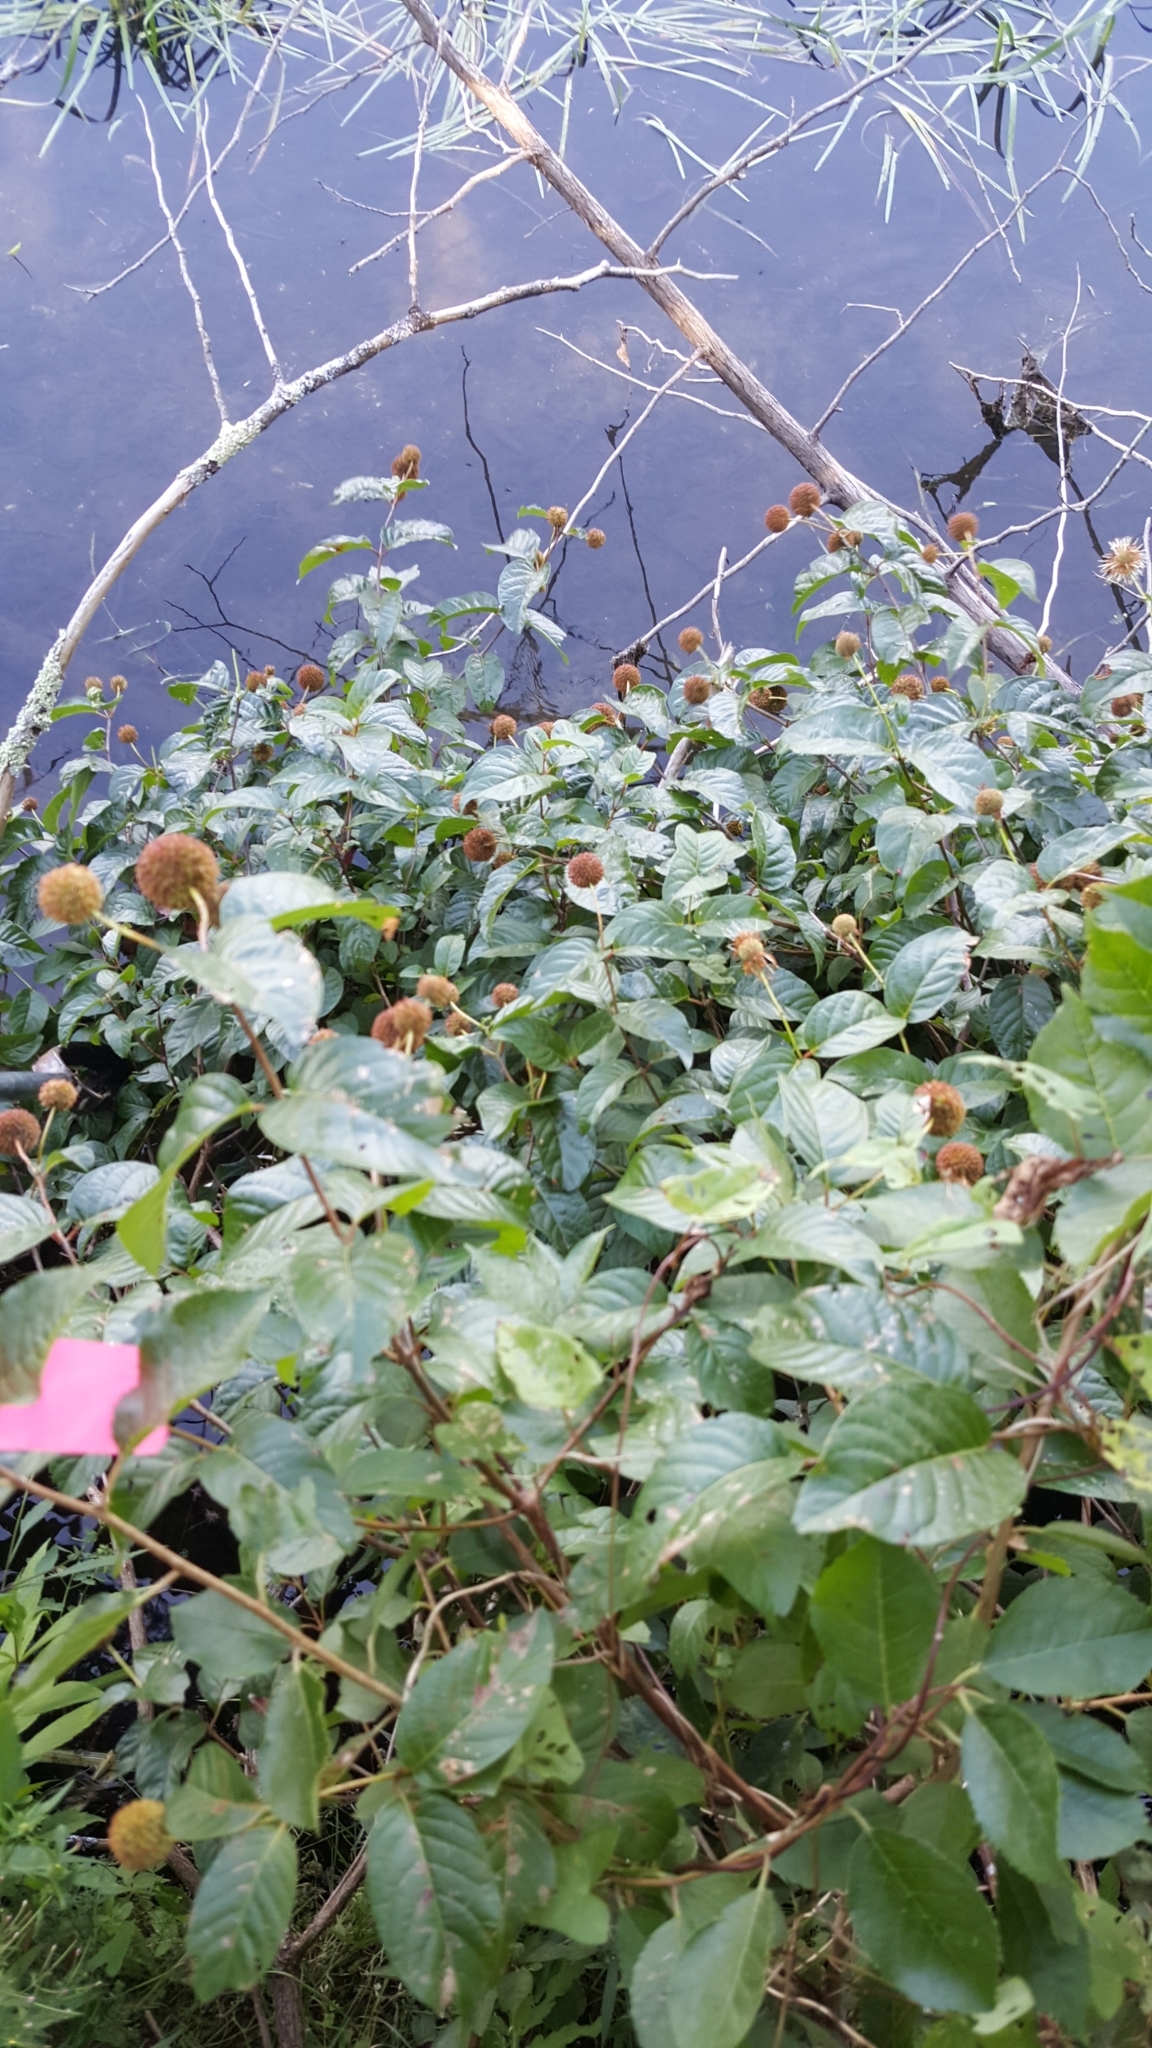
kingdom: Plantae
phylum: Tracheophyta
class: Magnoliopsida
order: Gentianales
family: Rubiaceae
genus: Cephalanthus
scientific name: Cephalanthus occidentalis
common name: Button-willow
